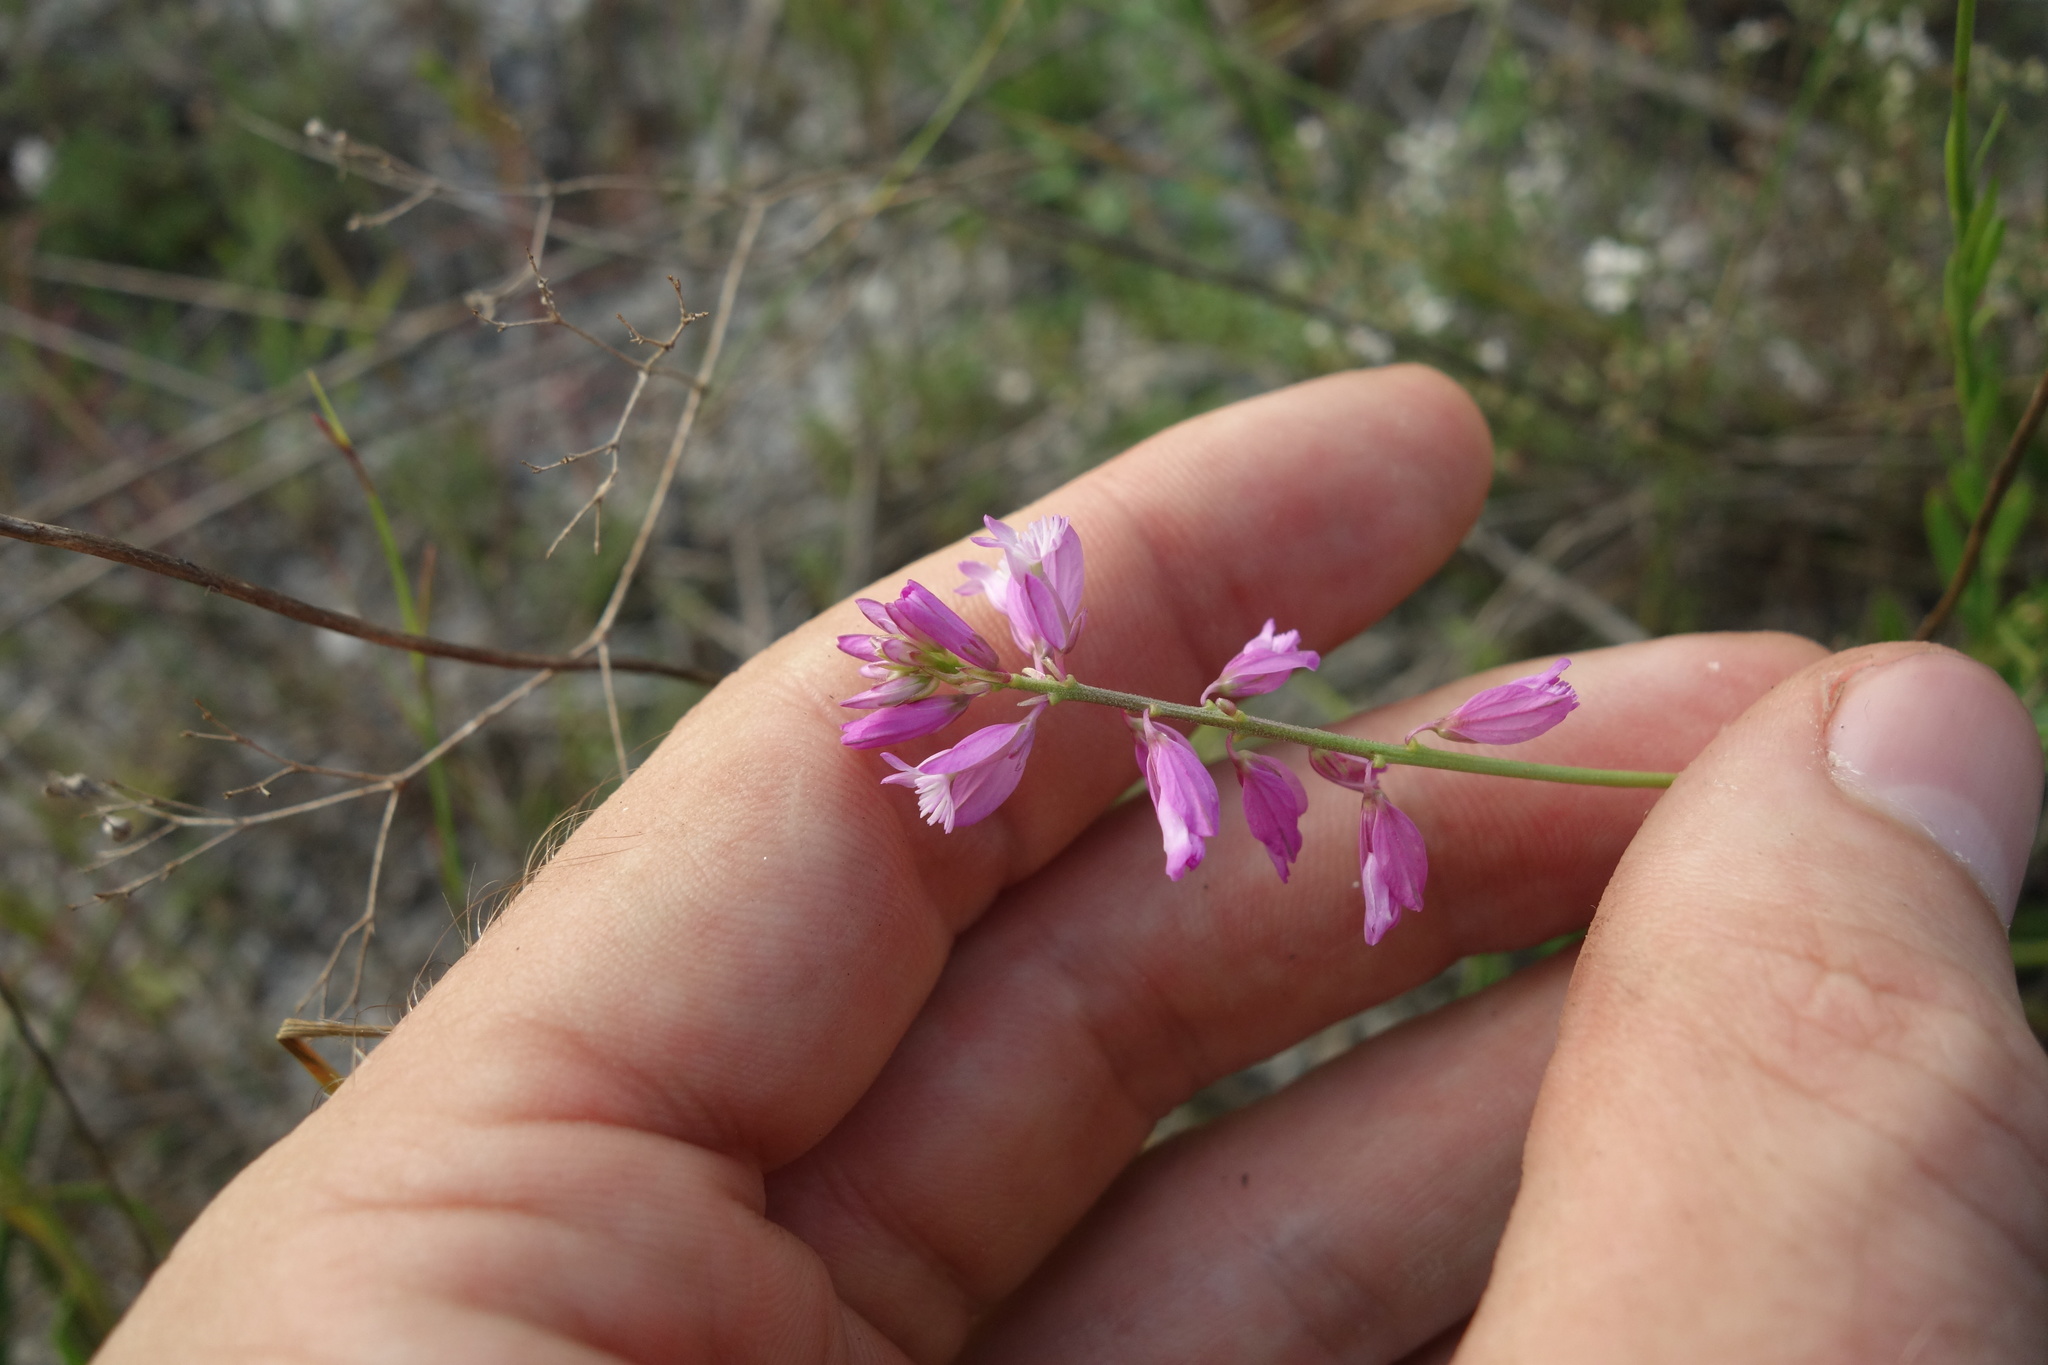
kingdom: Plantae
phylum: Tracheophyta
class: Magnoliopsida
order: Fabales
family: Polygalaceae
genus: Polygala
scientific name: Polygala nicaeensis
